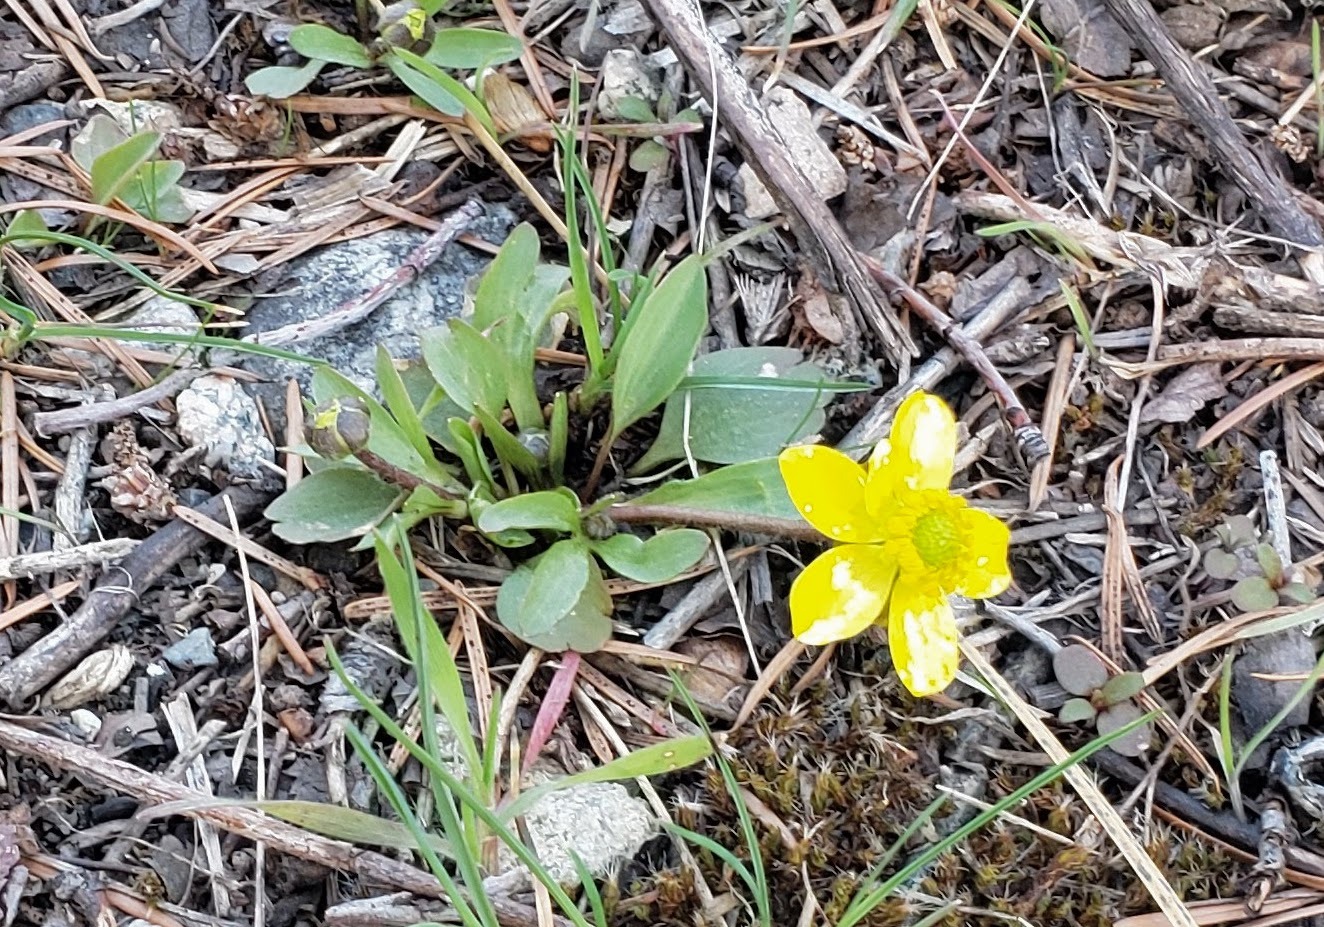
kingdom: Plantae
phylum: Tracheophyta
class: Magnoliopsida
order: Ranunculales
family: Ranunculaceae
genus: Ranunculus
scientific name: Ranunculus glaberrimus
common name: Sagebrush buttercup
